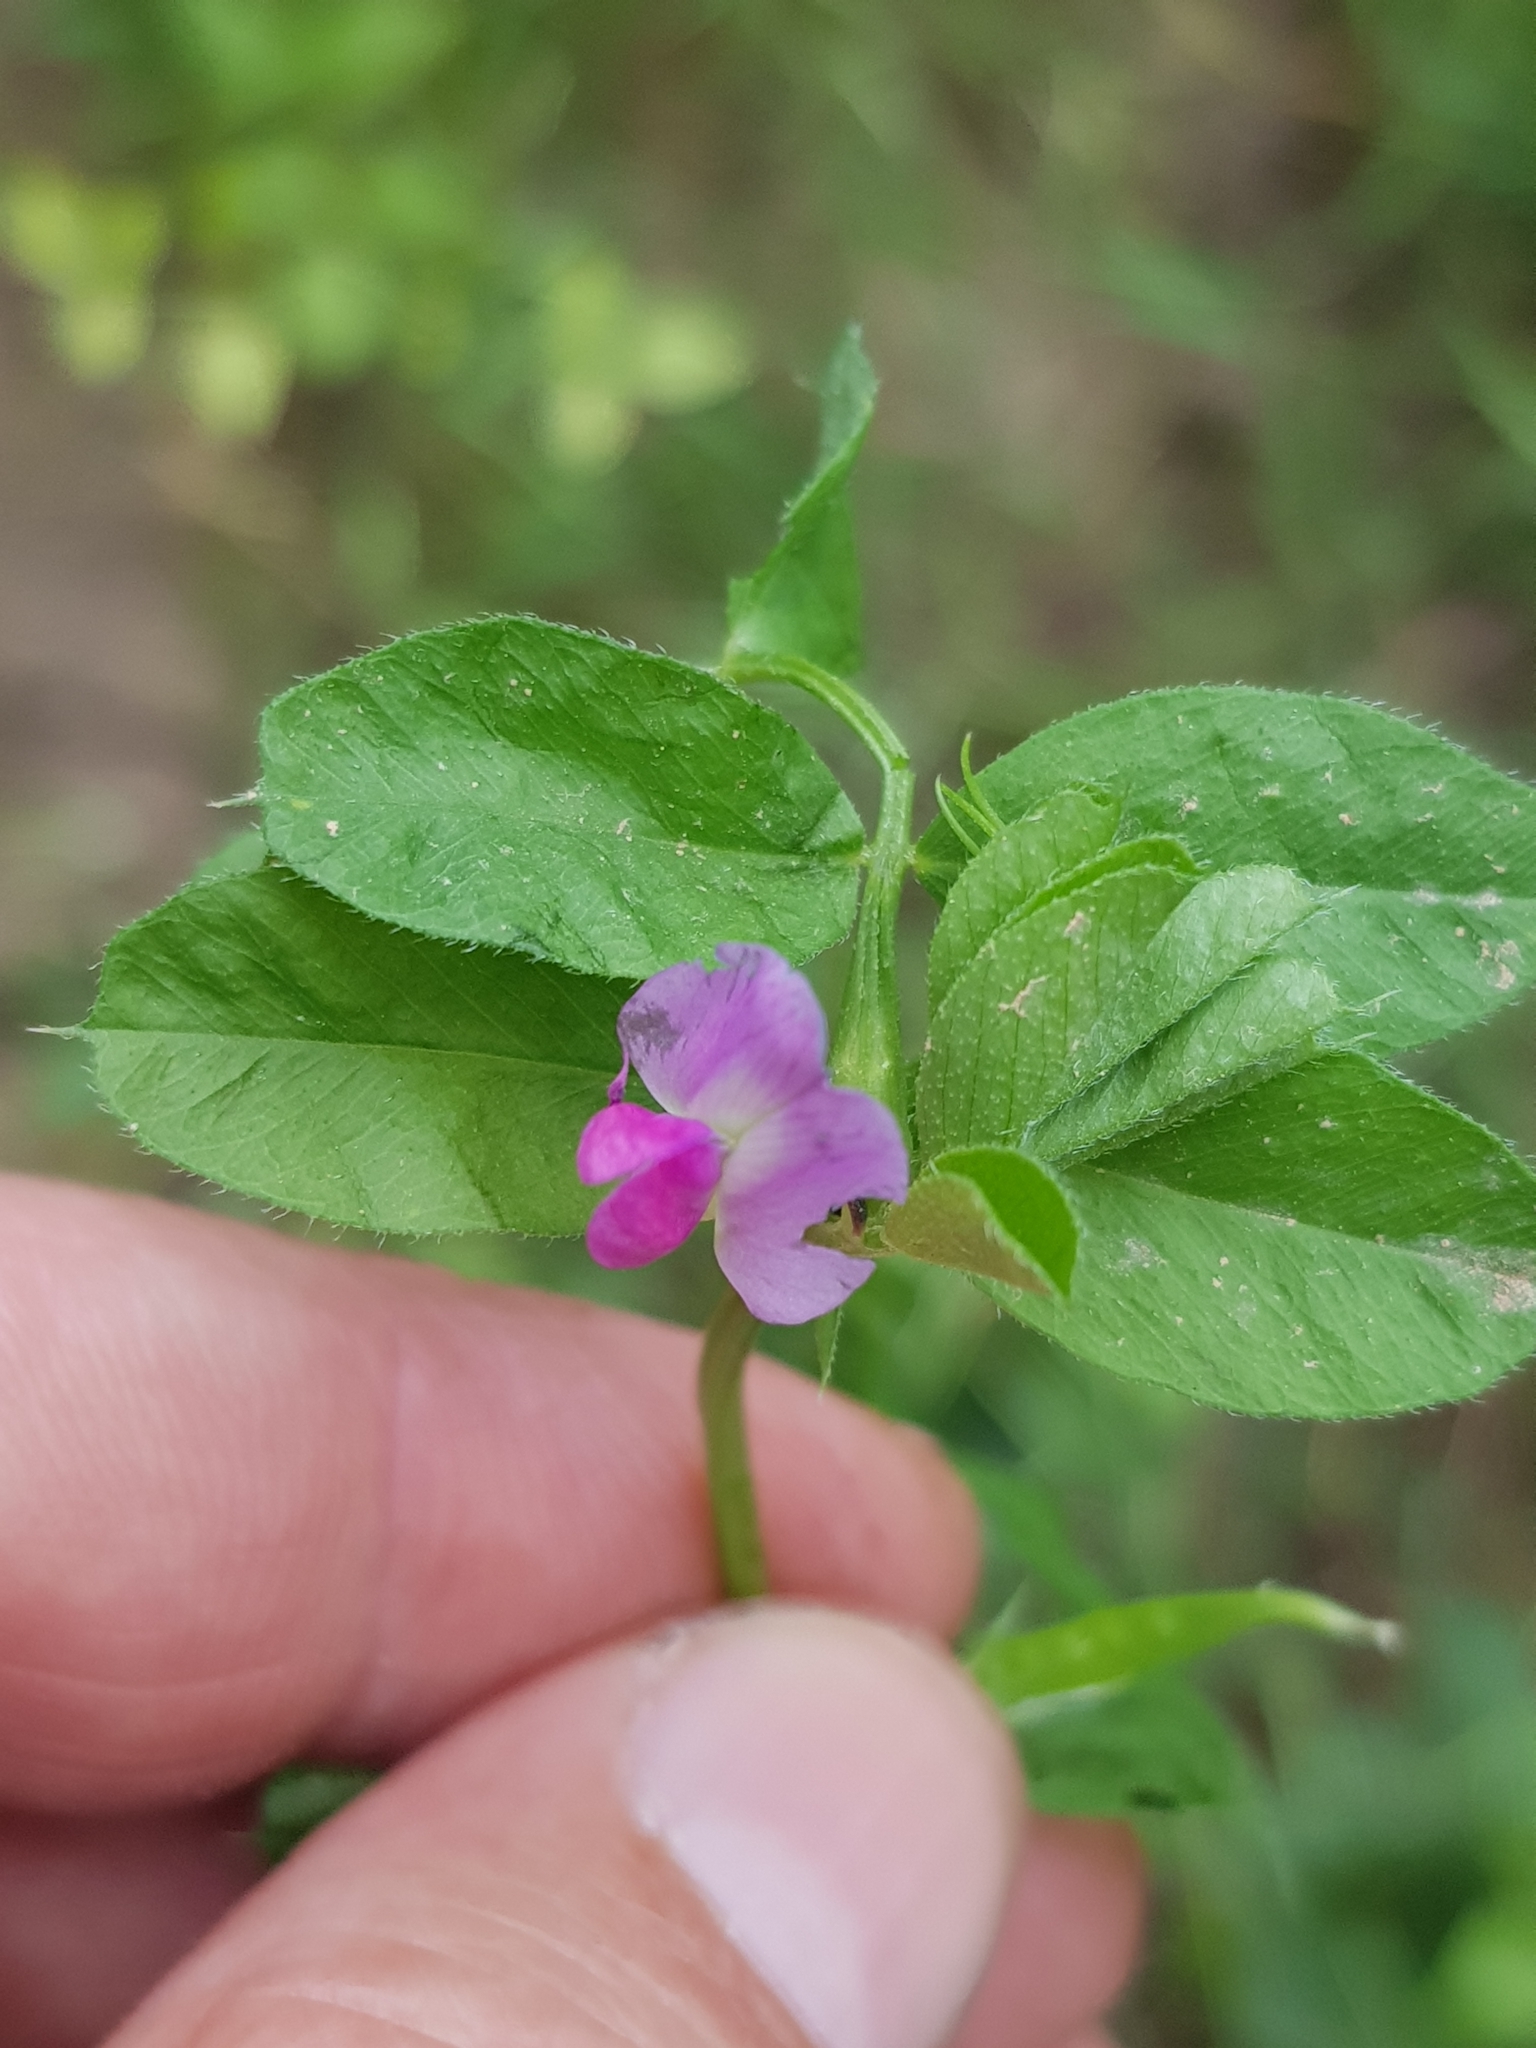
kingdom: Plantae
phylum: Tracheophyta
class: Magnoliopsida
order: Fabales
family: Fabaceae
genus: Vicia
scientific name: Vicia sativa
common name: Garden vetch
